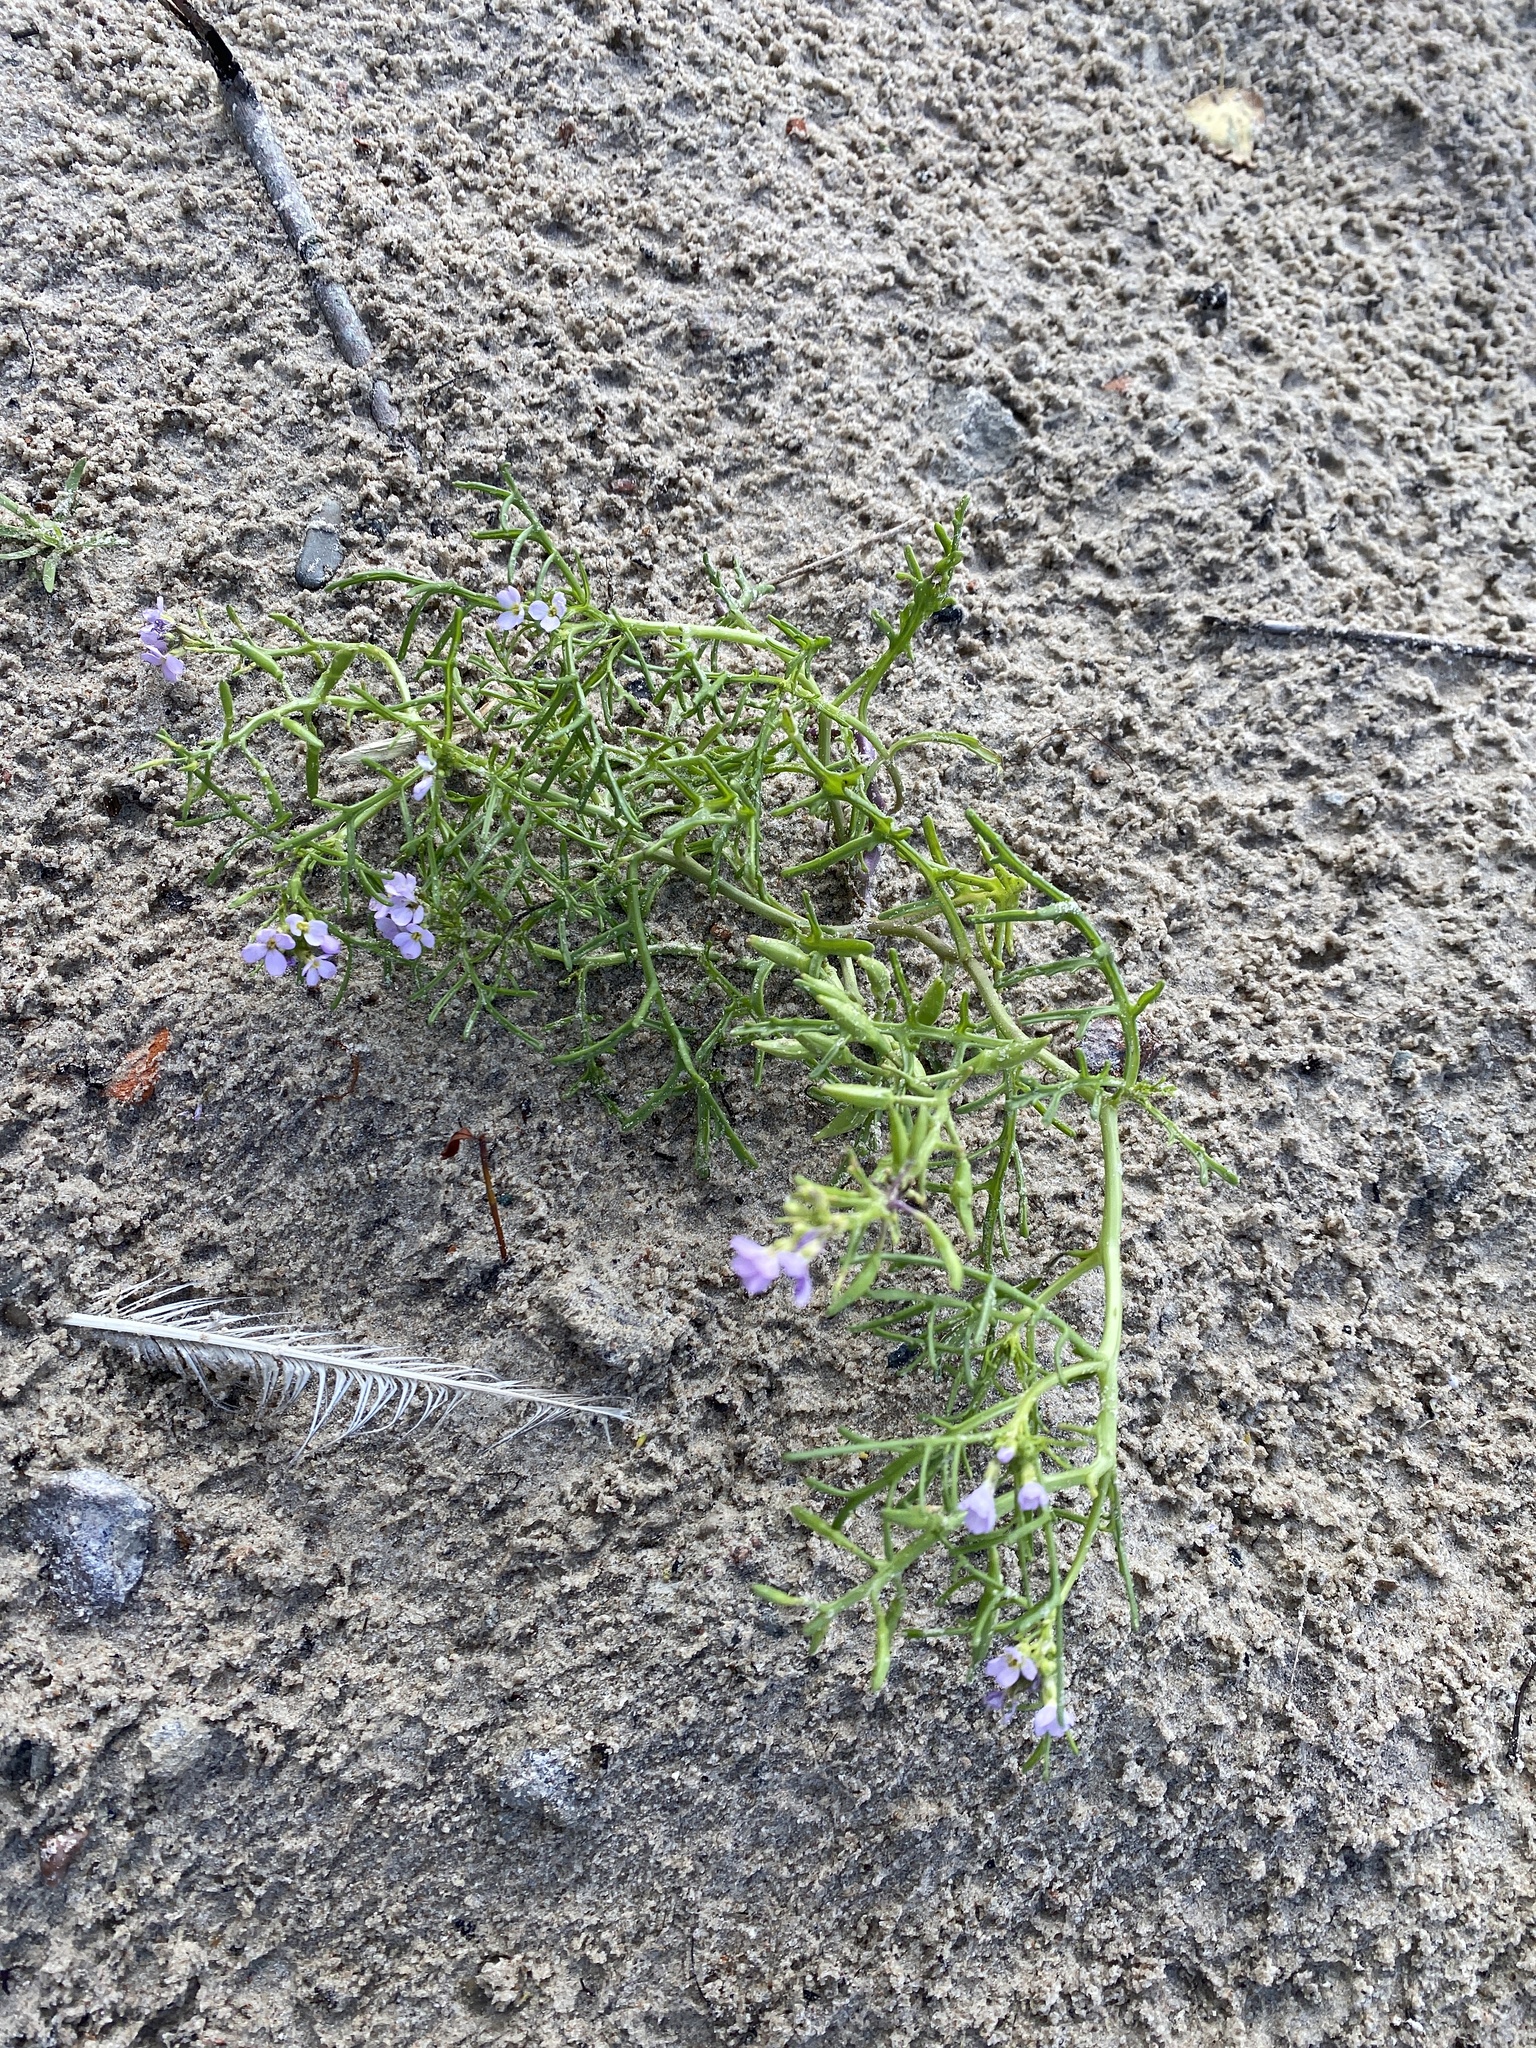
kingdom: Plantae
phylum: Tracheophyta
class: Magnoliopsida
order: Brassicales
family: Brassicaceae
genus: Cakile
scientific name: Cakile maritima
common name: Sea rocket
